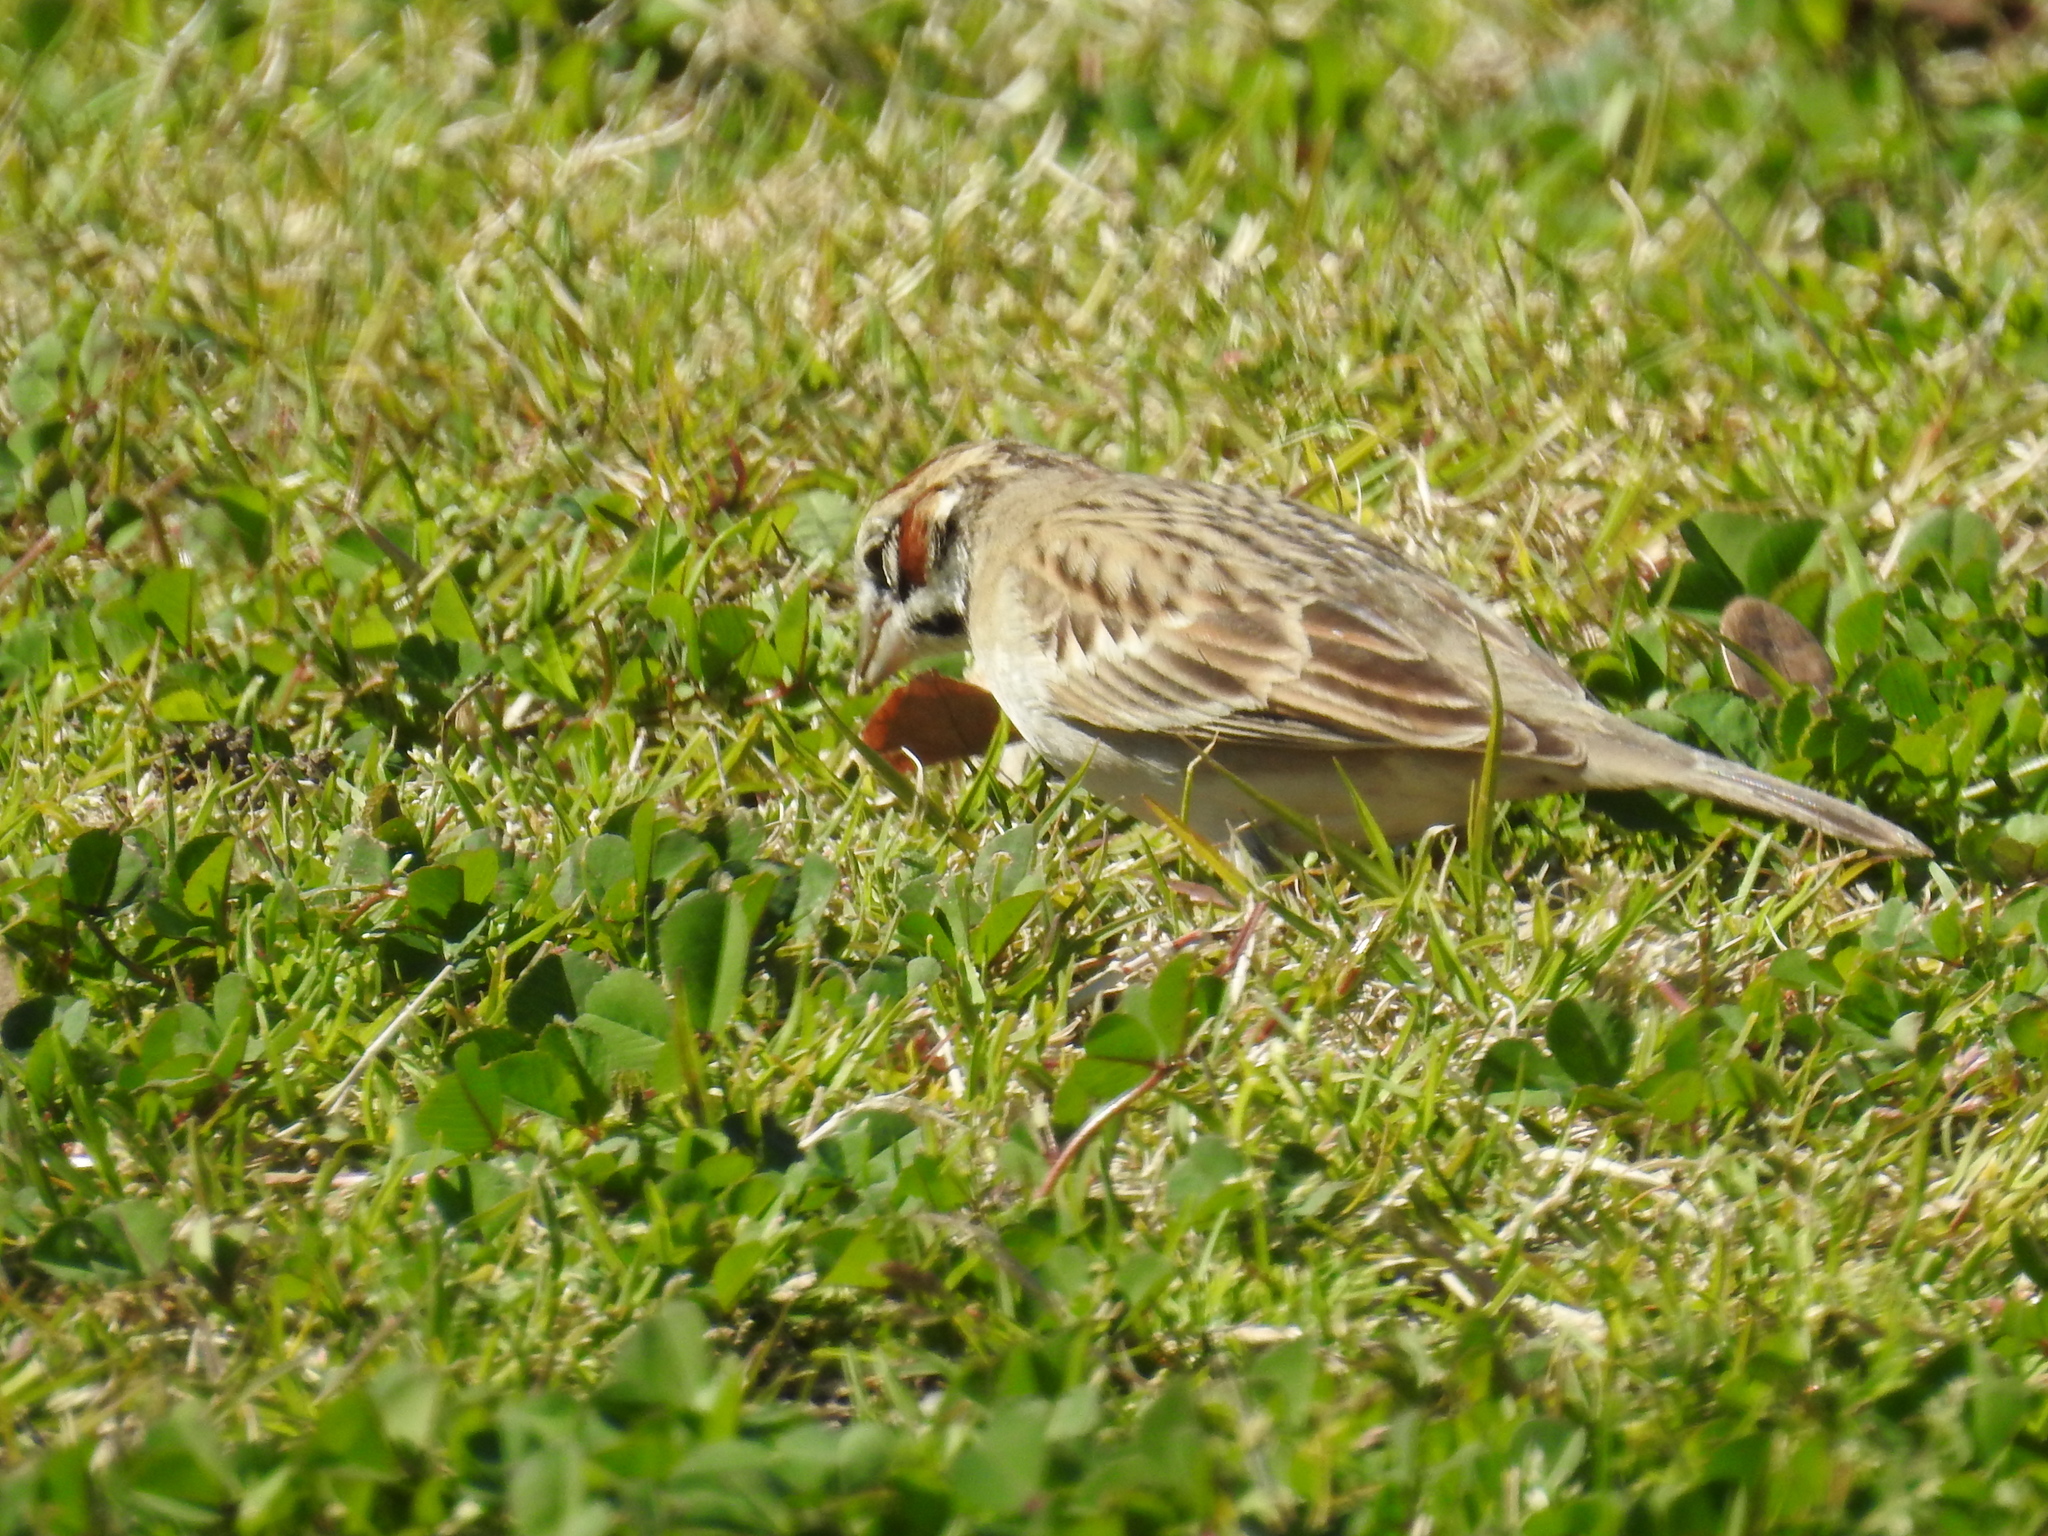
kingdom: Animalia
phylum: Chordata
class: Aves
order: Passeriformes
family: Passerellidae
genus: Chondestes
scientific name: Chondestes grammacus
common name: Lark sparrow
